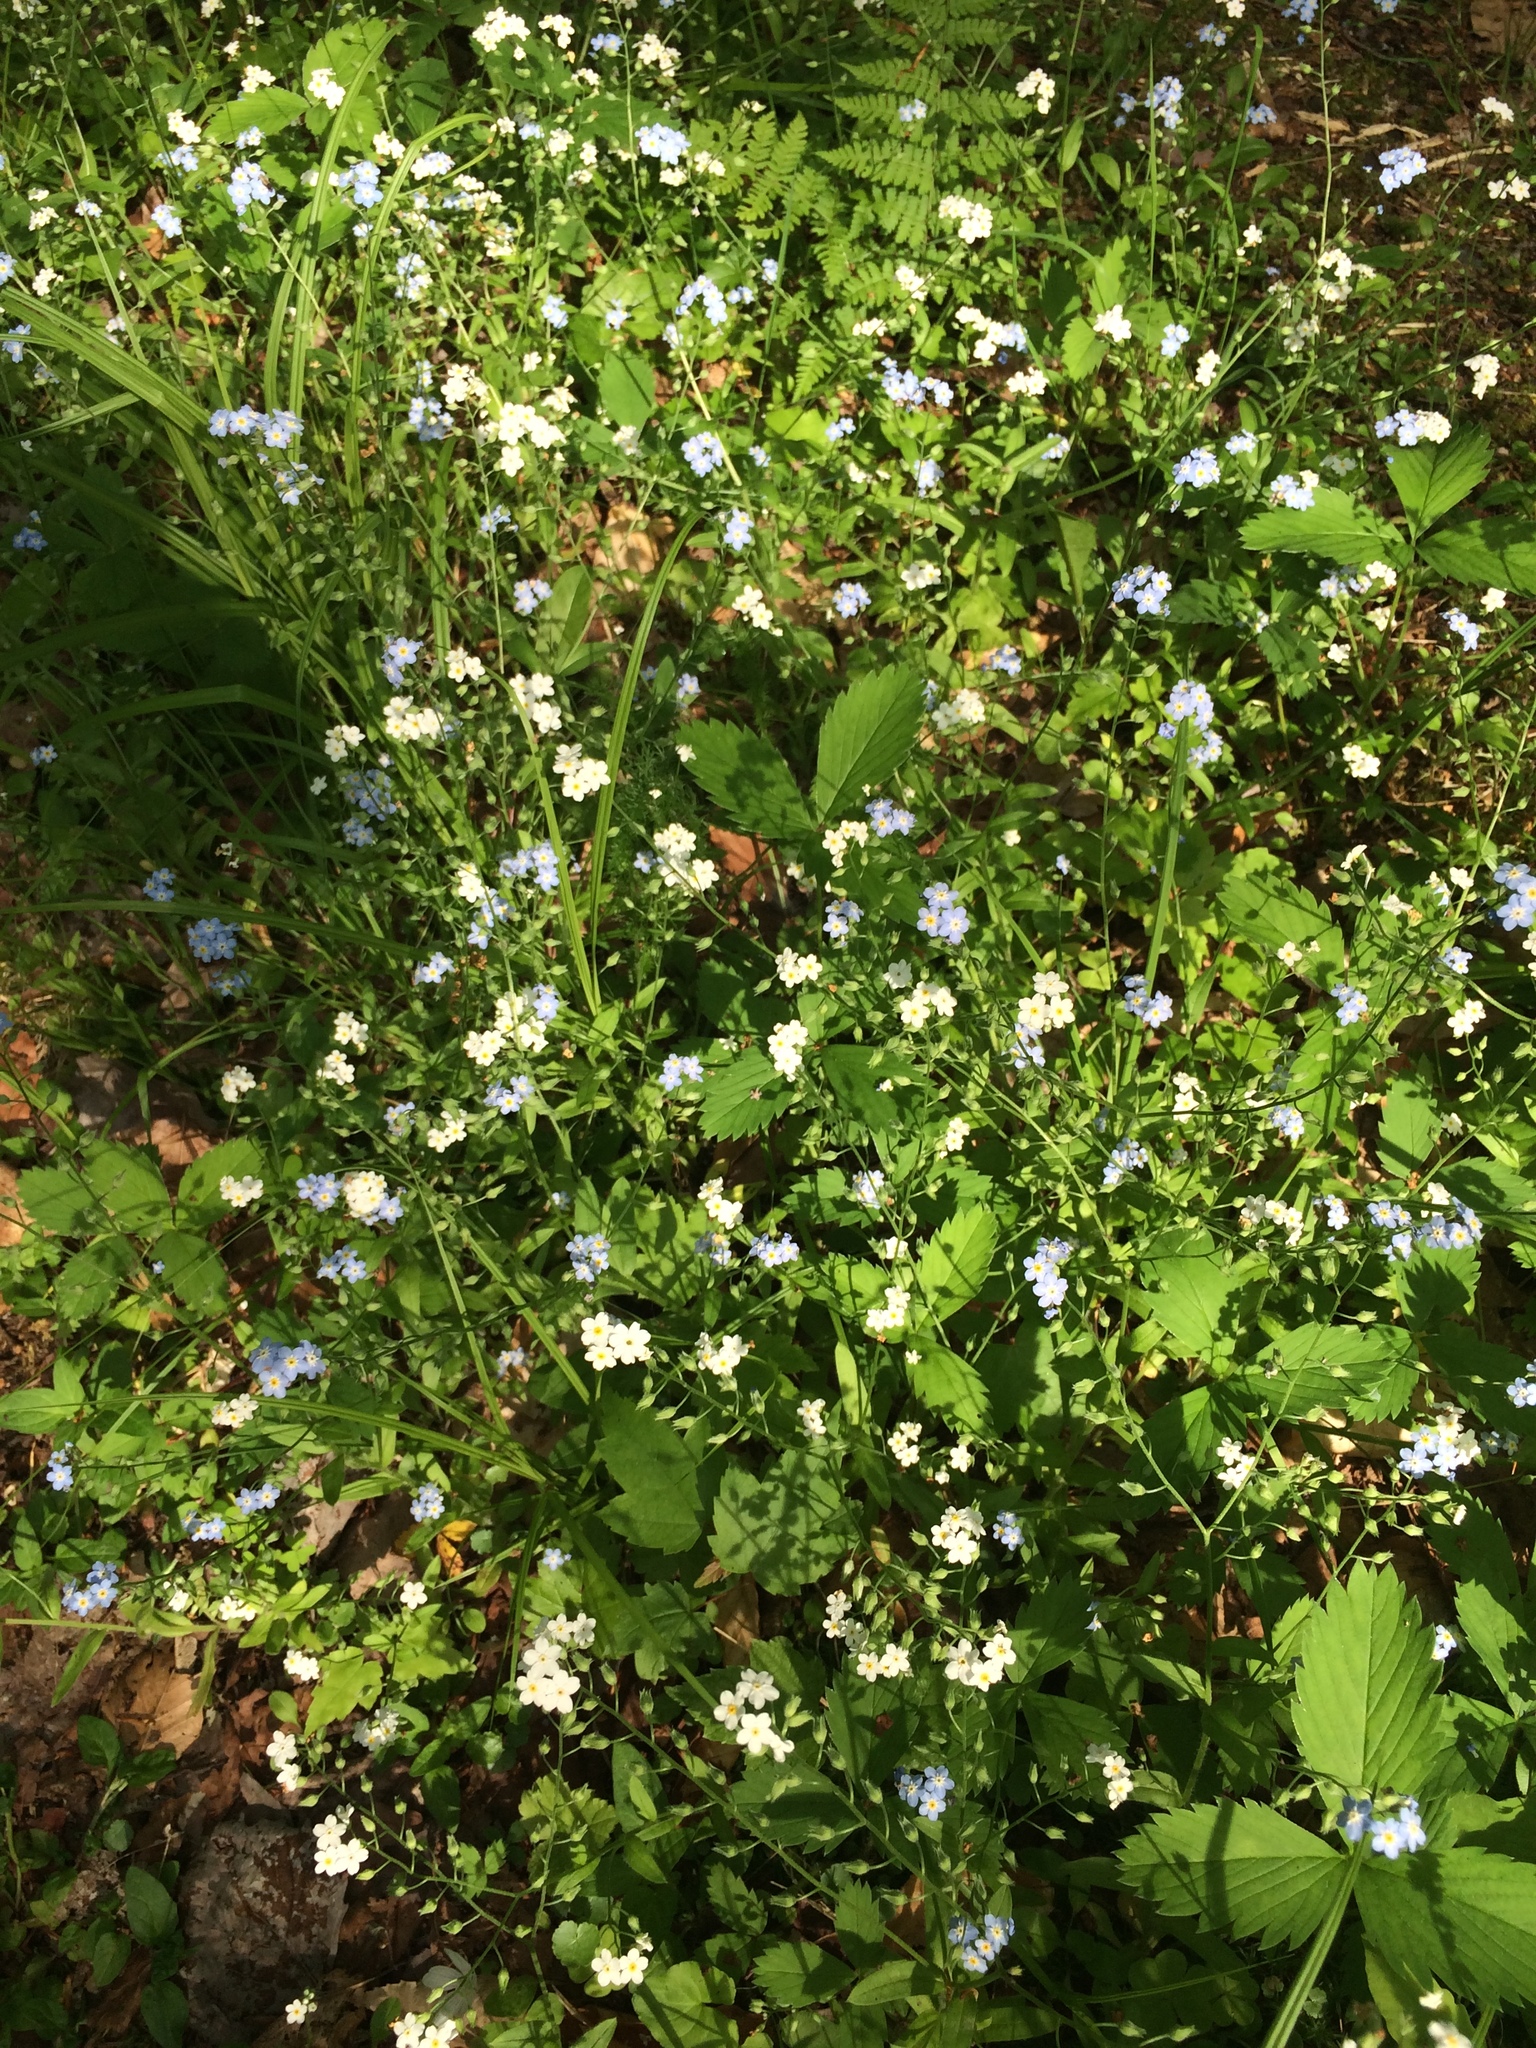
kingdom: Plantae
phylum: Tracheophyta
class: Magnoliopsida
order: Boraginales
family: Boraginaceae
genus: Myosotis
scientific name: Myosotis sylvatica
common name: Wood forget-me-not
